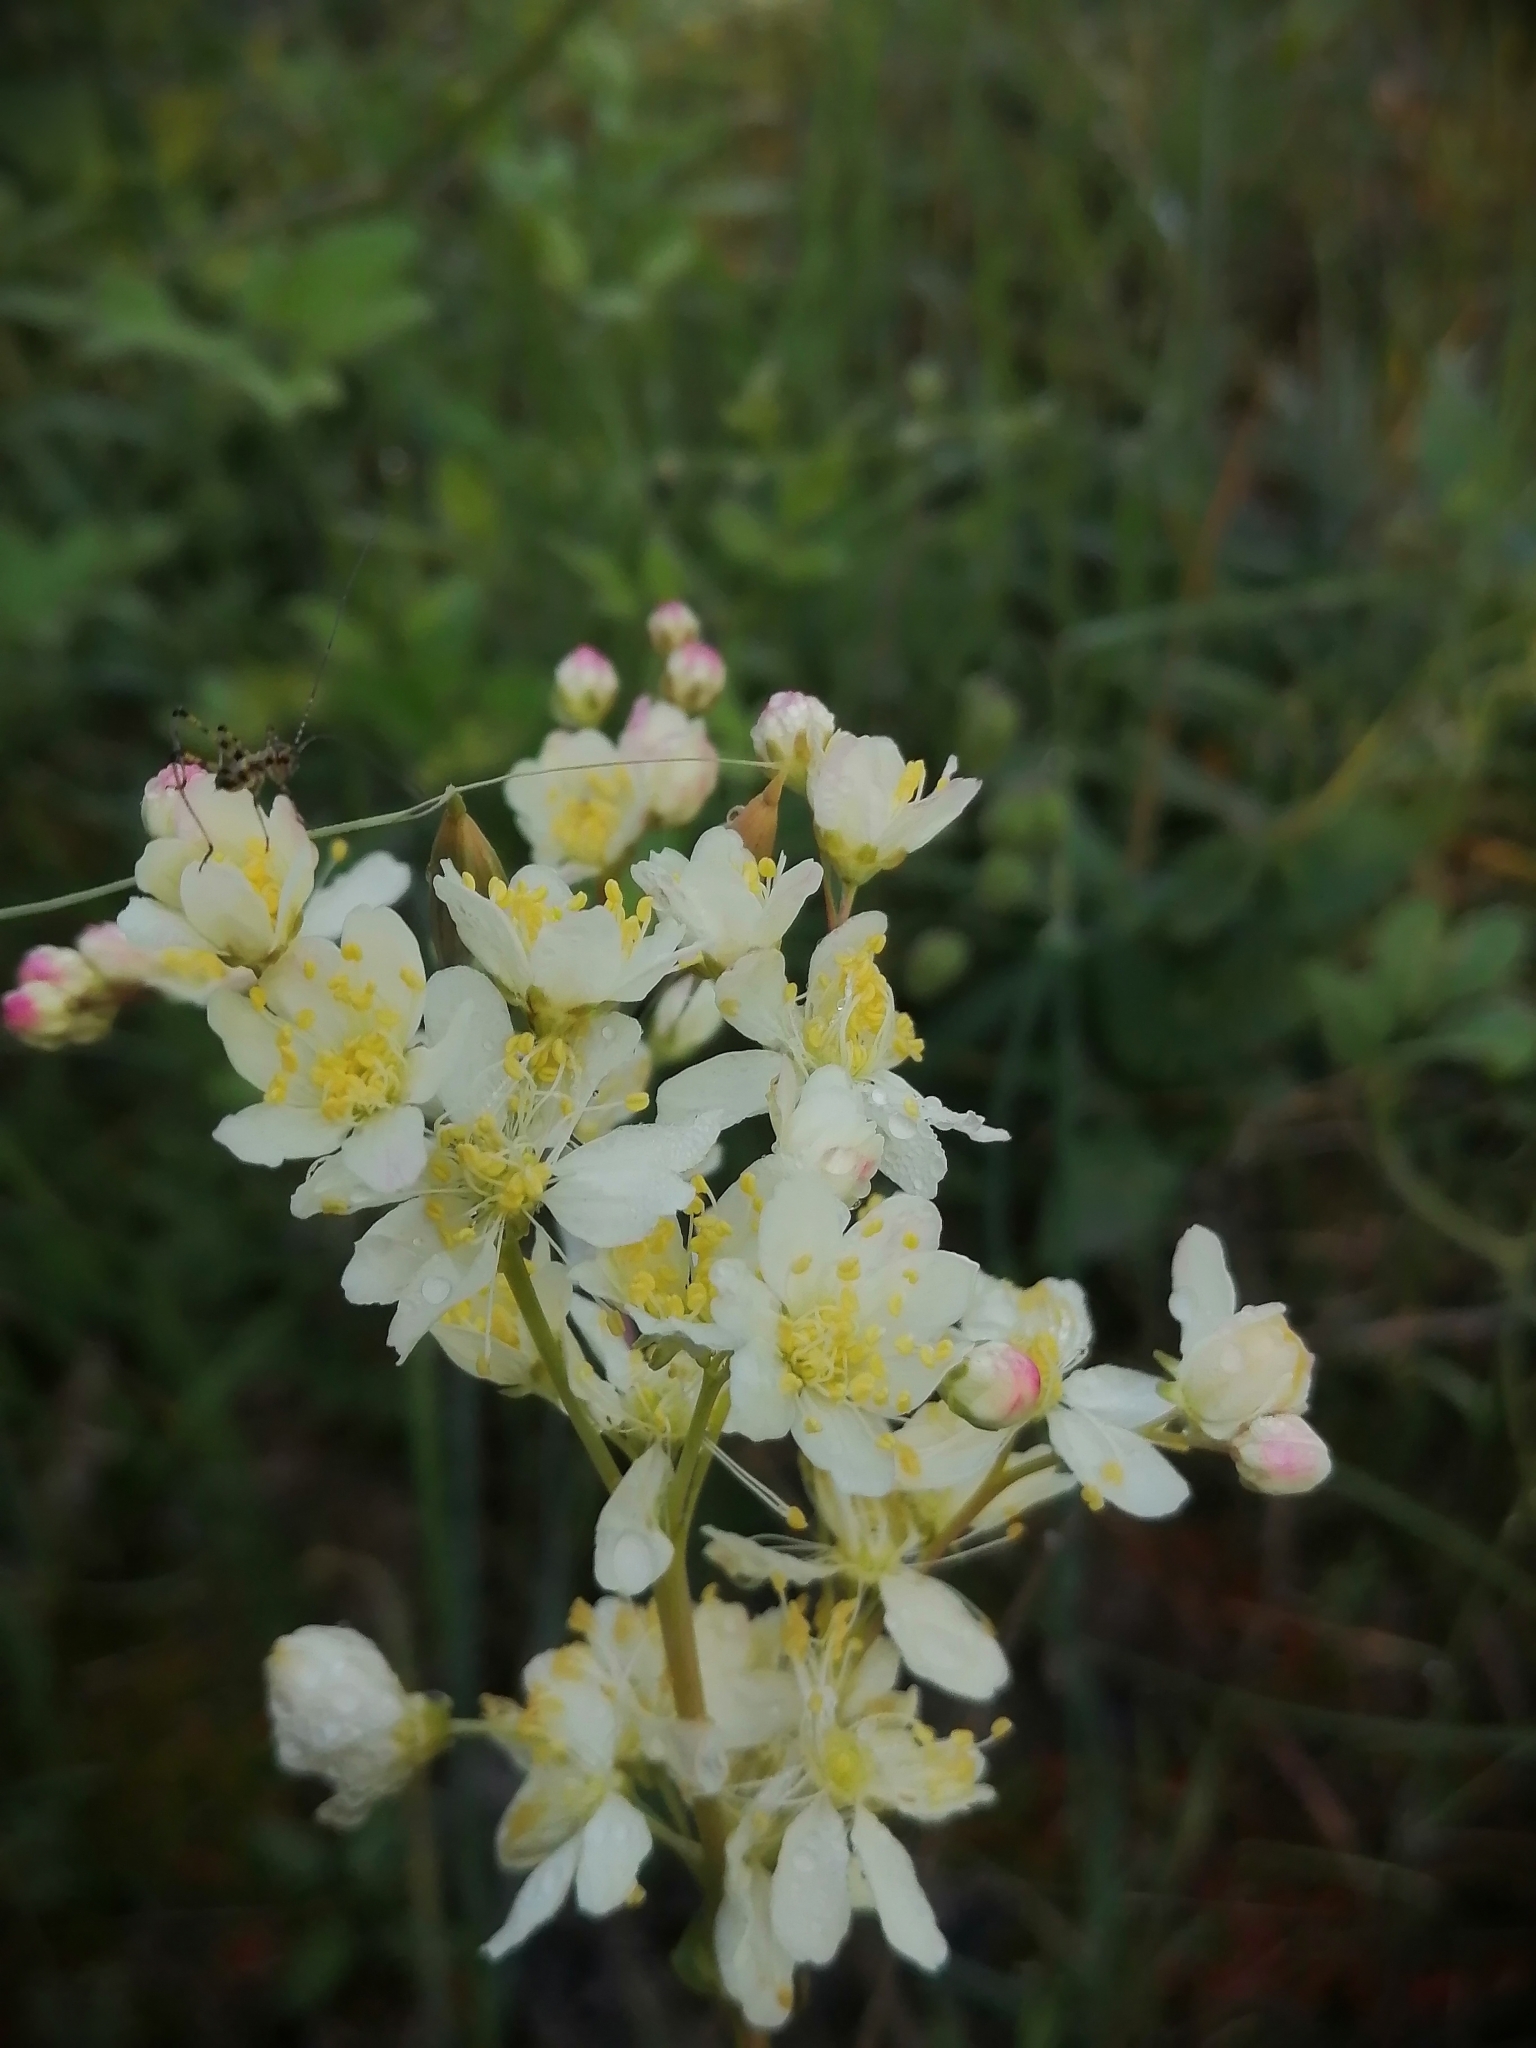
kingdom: Plantae
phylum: Tracheophyta
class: Magnoliopsida
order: Rosales
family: Rosaceae
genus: Filipendula
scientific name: Filipendula vulgaris
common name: Dropwort
